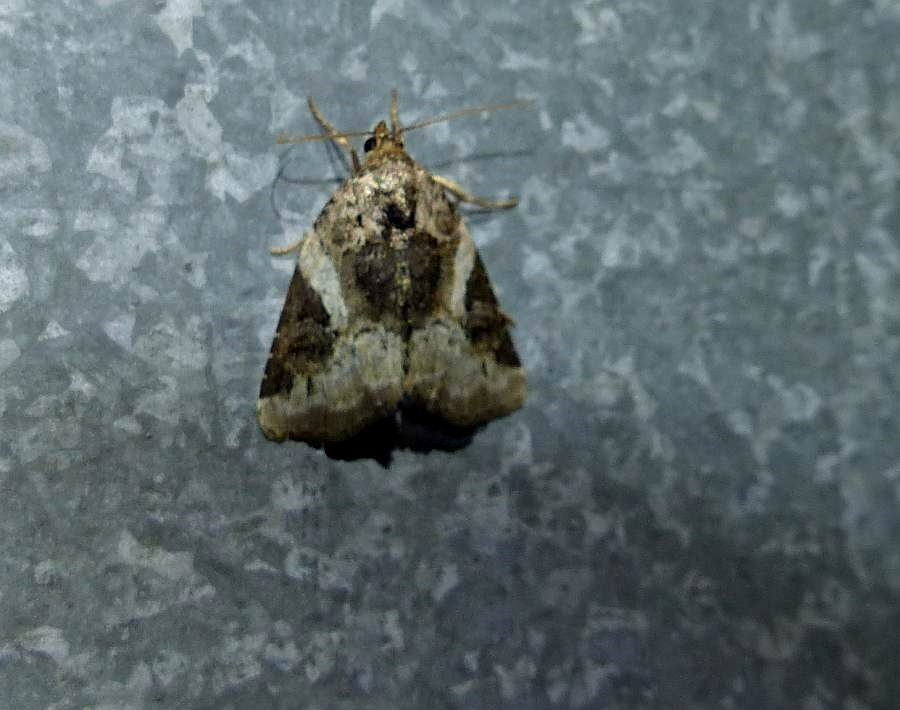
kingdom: Animalia
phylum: Arthropoda
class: Insecta
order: Lepidoptera
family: Noctuidae
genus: Pseudeustrotia
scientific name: Pseudeustrotia carneola
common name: Pink-barred lithacodia moth
